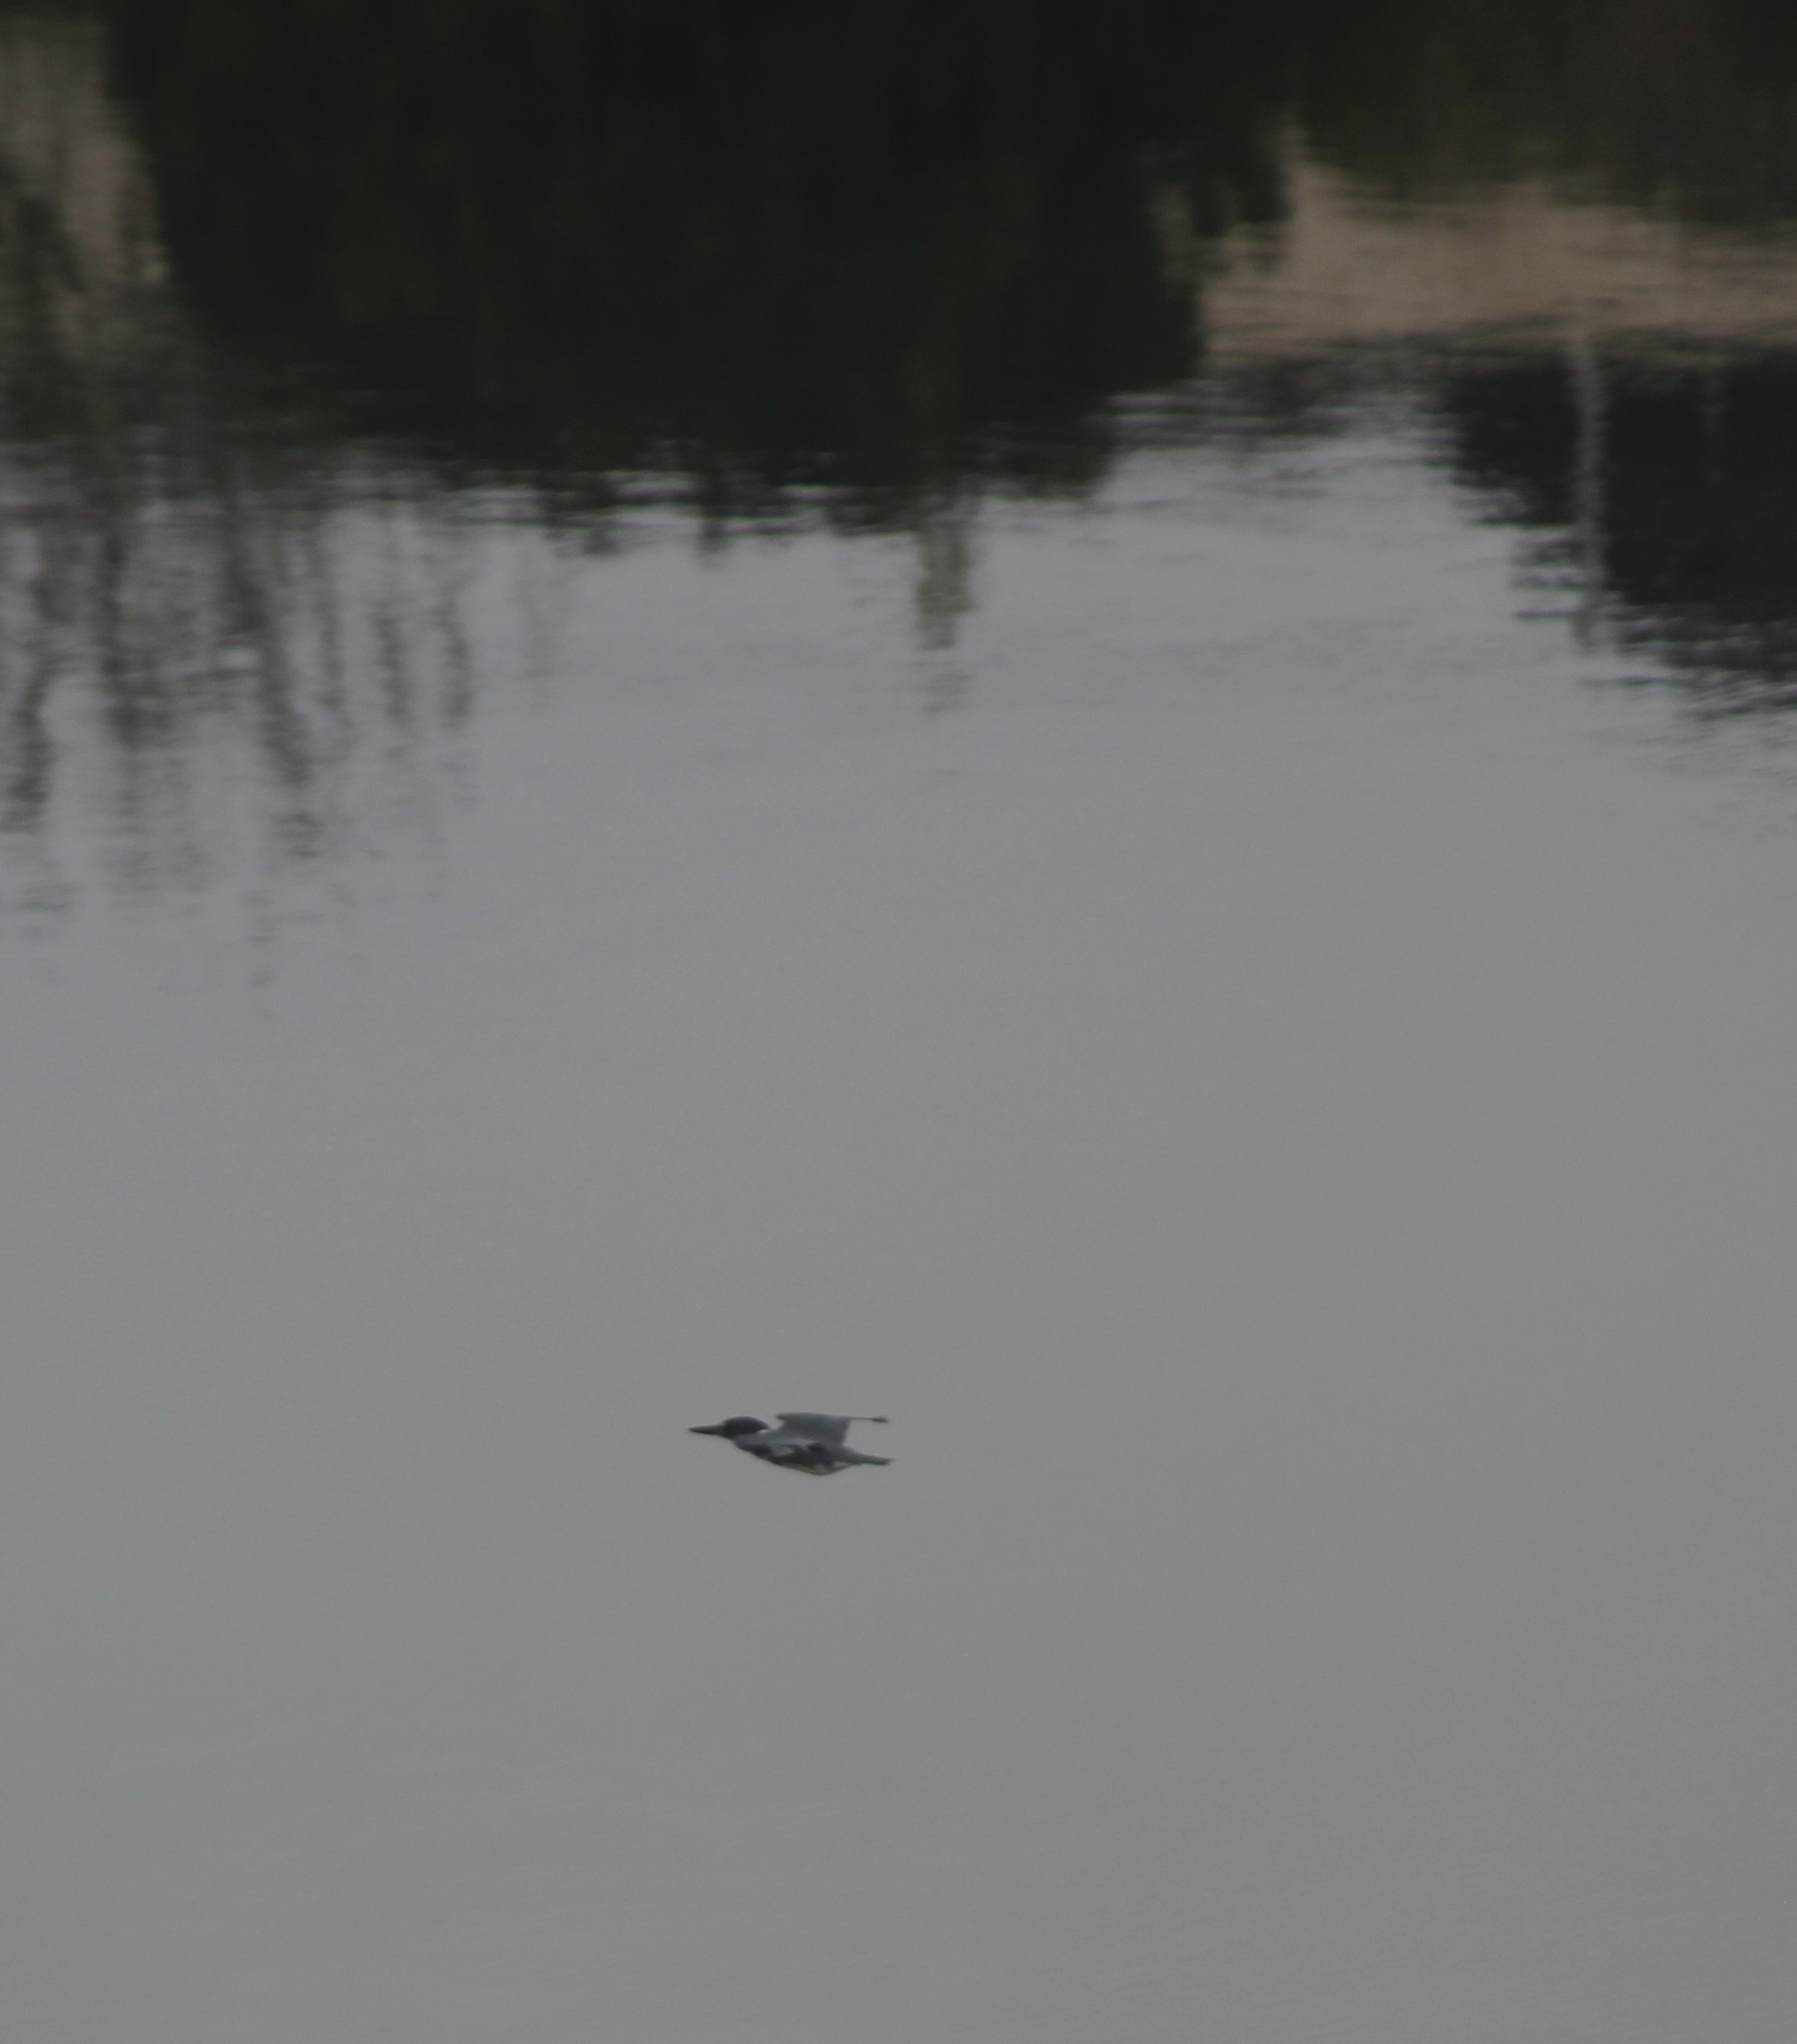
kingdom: Animalia
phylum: Chordata
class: Aves
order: Coraciiformes
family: Alcedinidae
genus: Megaceryle
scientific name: Megaceryle alcyon
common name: Belted kingfisher
